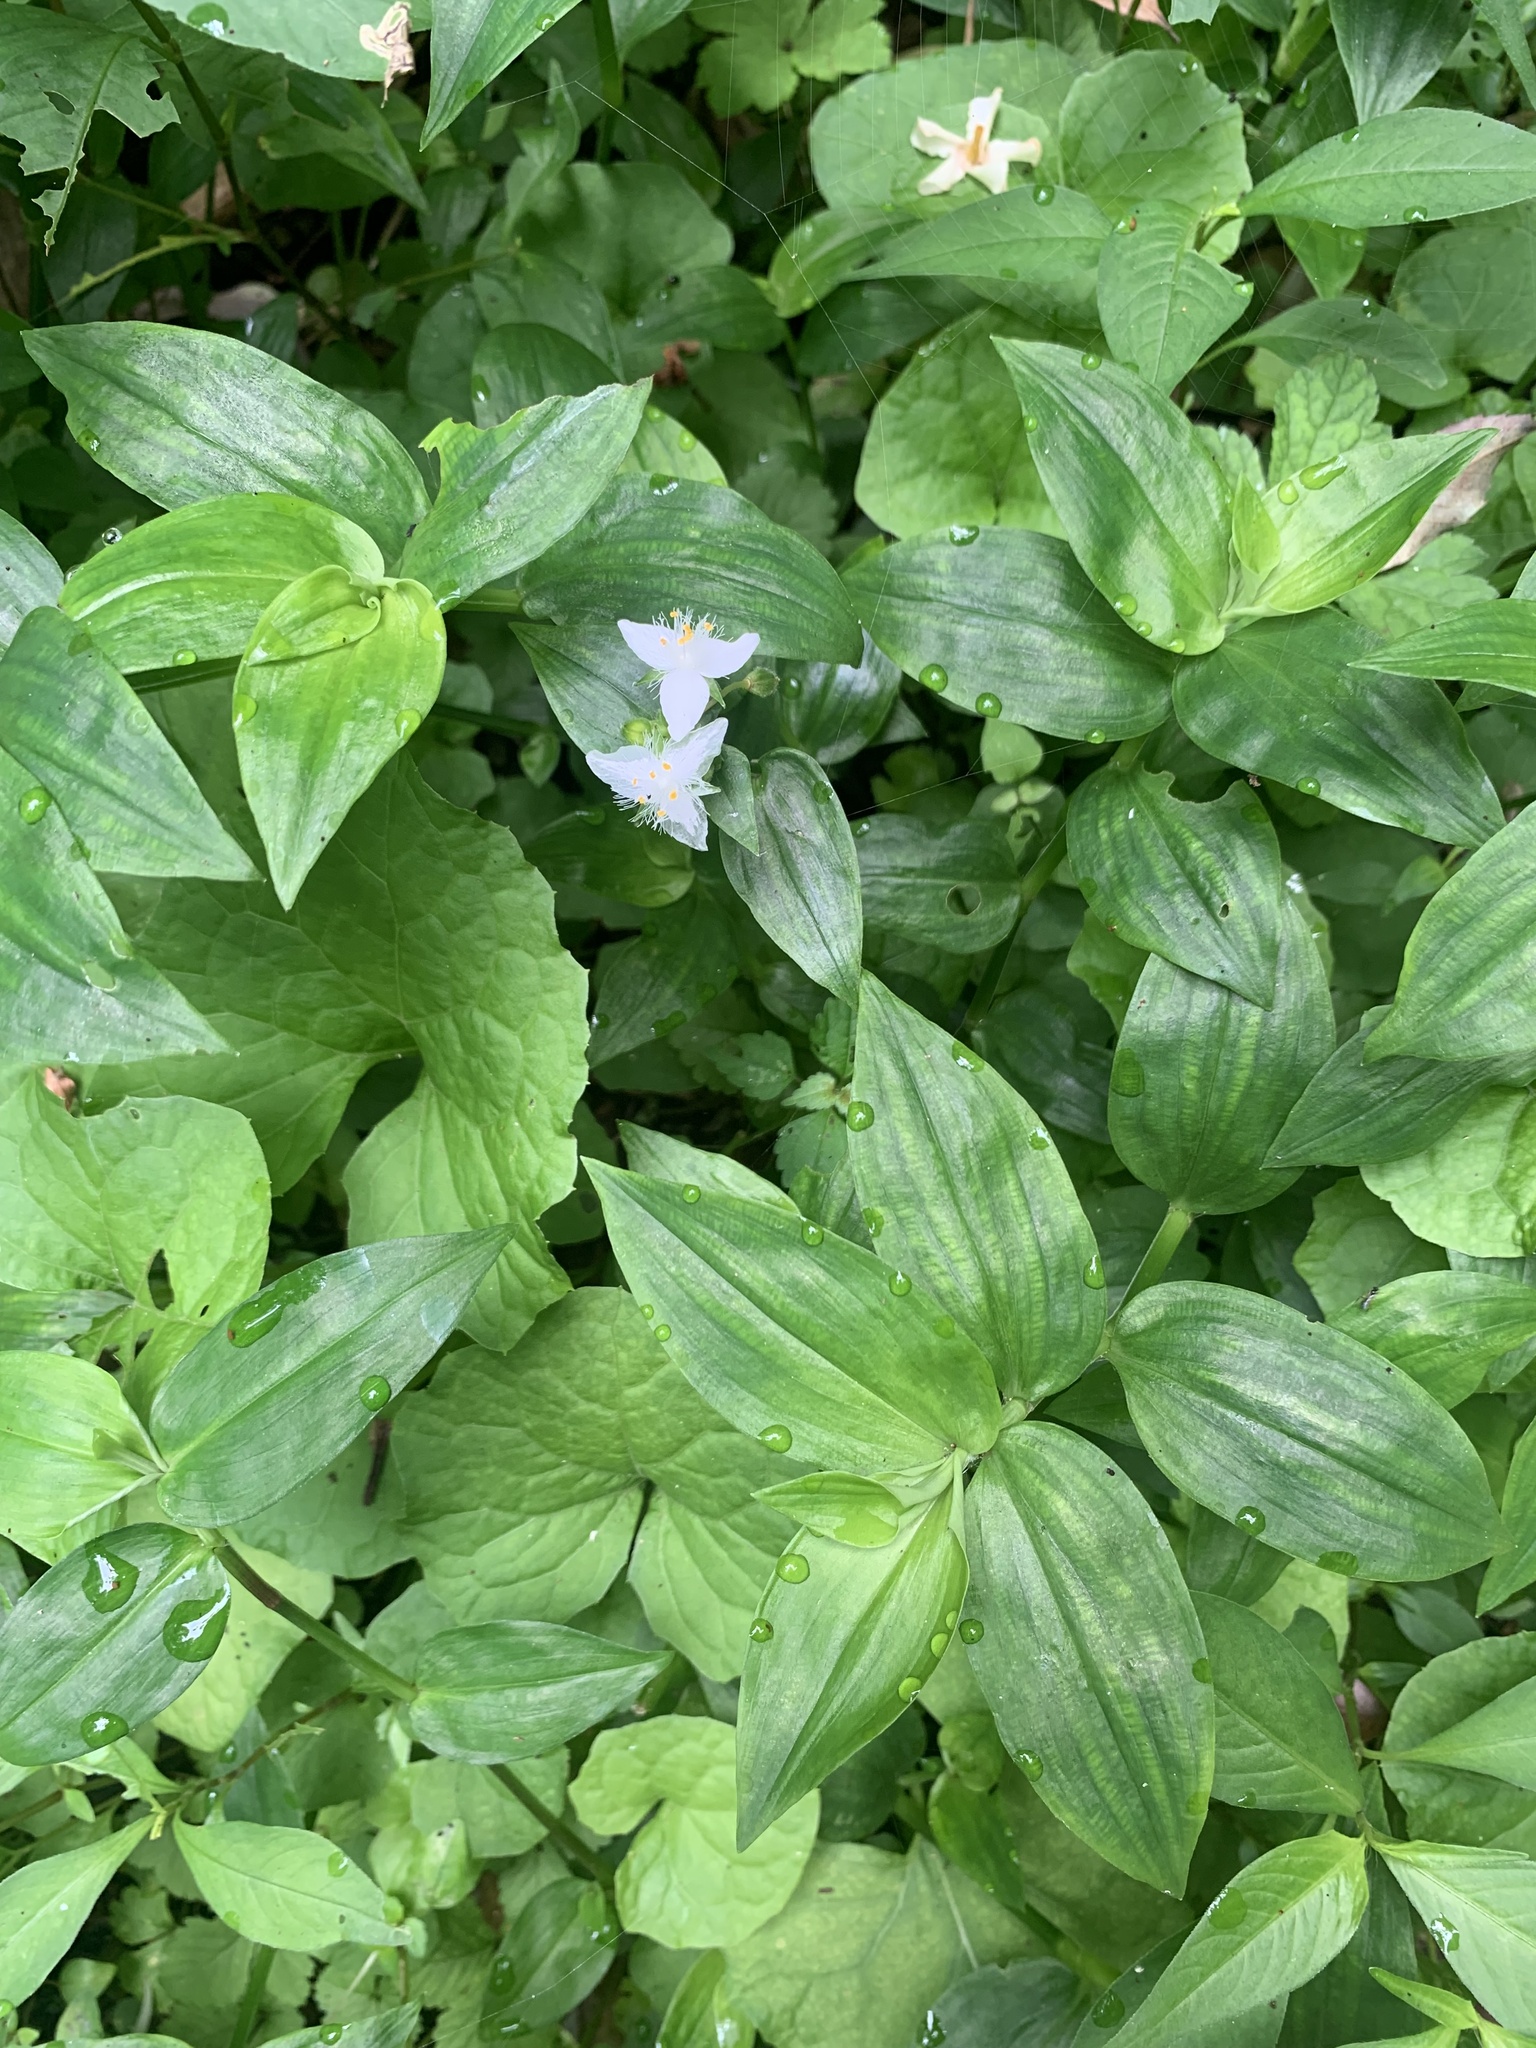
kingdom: Plantae
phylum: Tracheophyta
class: Liliopsida
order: Commelinales
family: Commelinaceae
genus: Tradescantia
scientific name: Tradescantia fluminensis
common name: Wandering-jew
